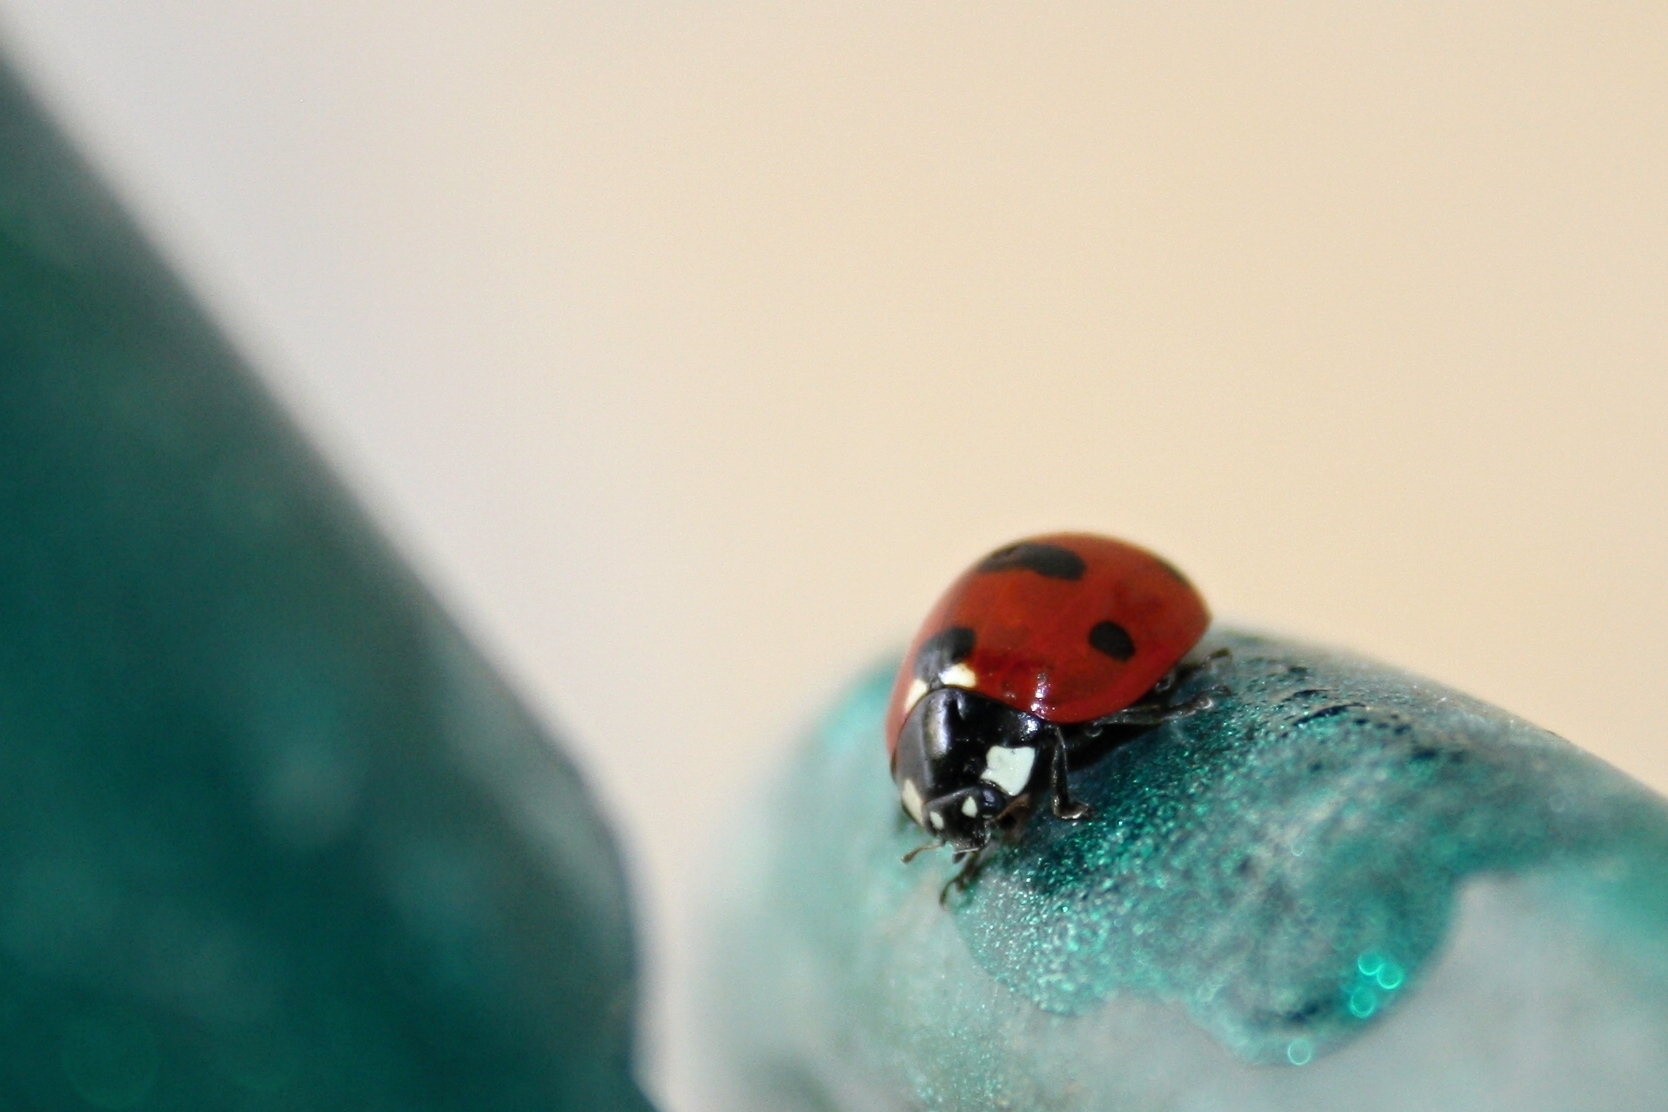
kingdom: Animalia
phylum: Arthropoda
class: Insecta
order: Coleoptera
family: Coccinellidae
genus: Coccinella
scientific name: Coccinella septempunctata
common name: Sevenspotted lady beetle
